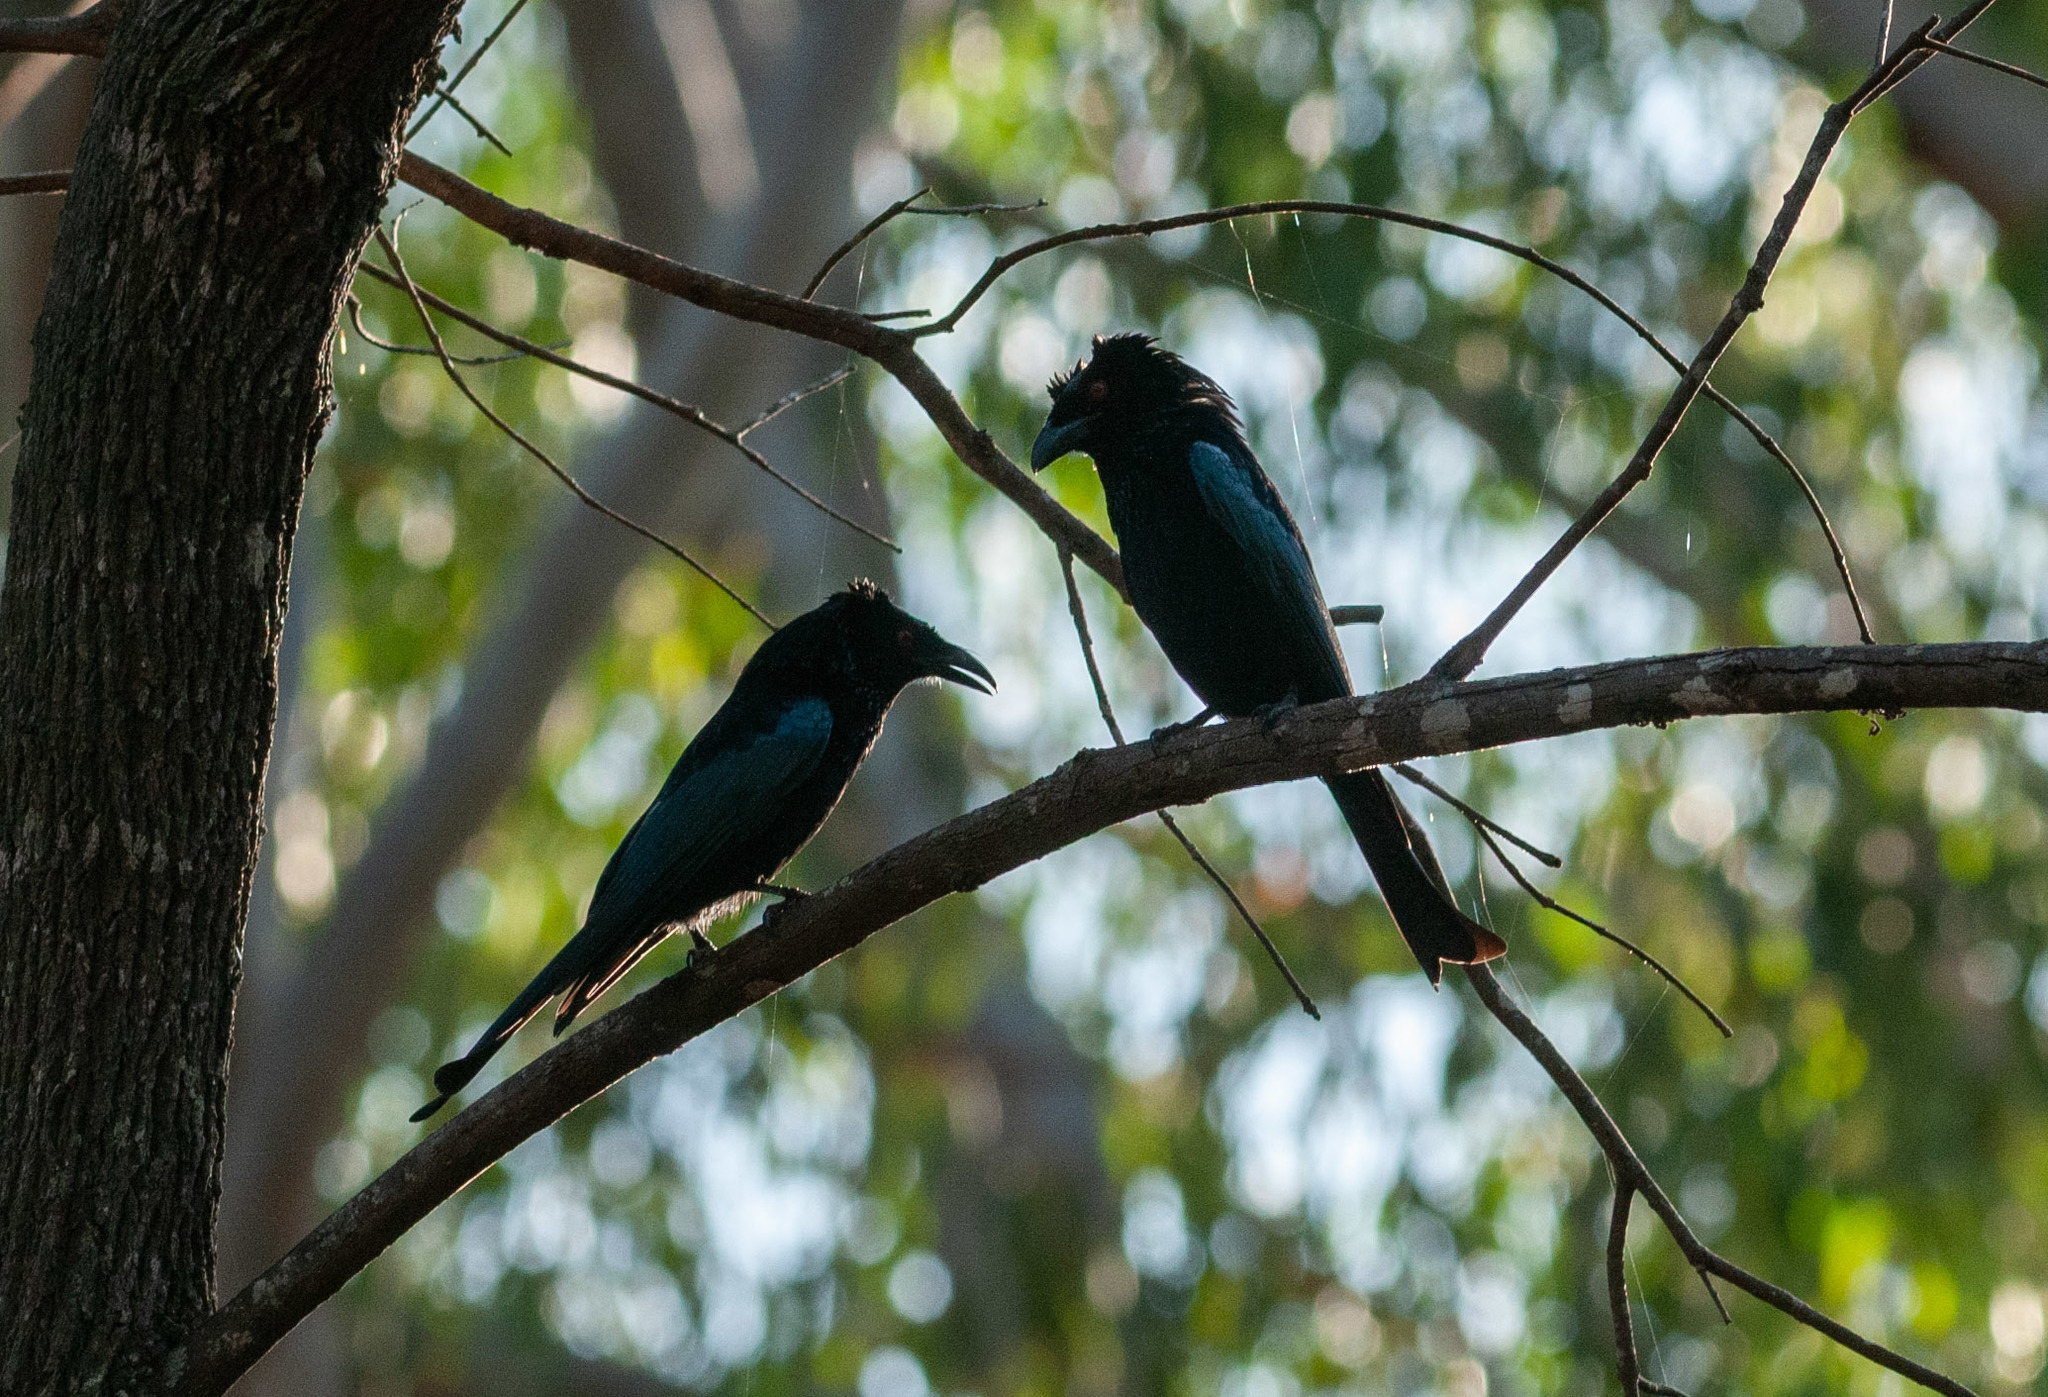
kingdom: Animalia
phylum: Chordata
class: Aves
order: Passeriformes
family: Dicruridae
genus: Dicrurus
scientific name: Dicrurus bracteatus
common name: Spangled drongo
